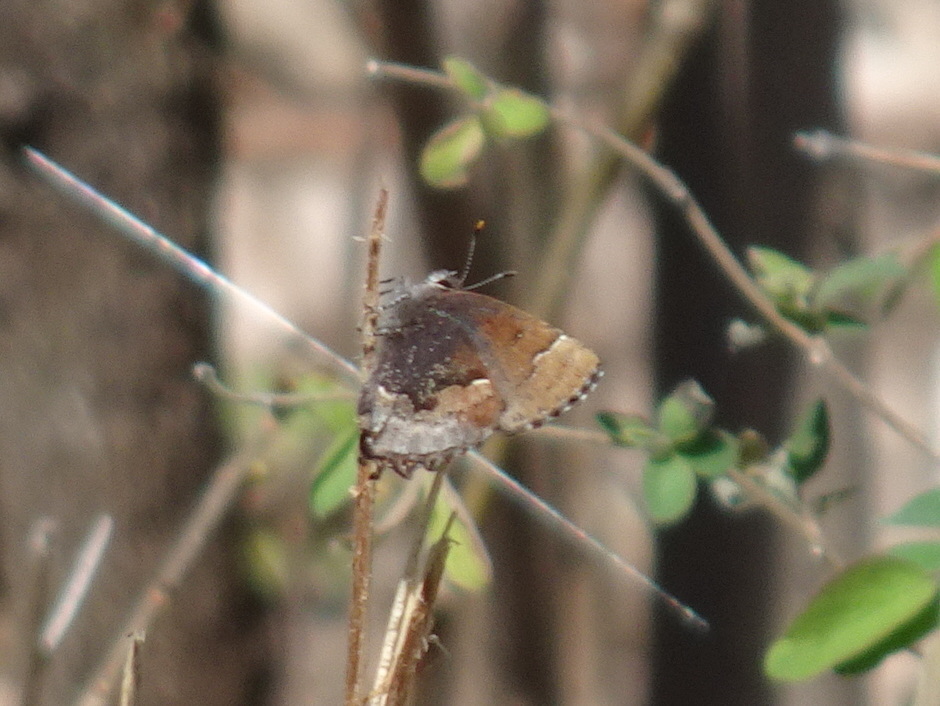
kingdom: Animalia
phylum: Arthropoda
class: Insecta
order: Lepidoptera
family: Lycaenidae
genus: Incisalia
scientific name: Incisalia henrici
